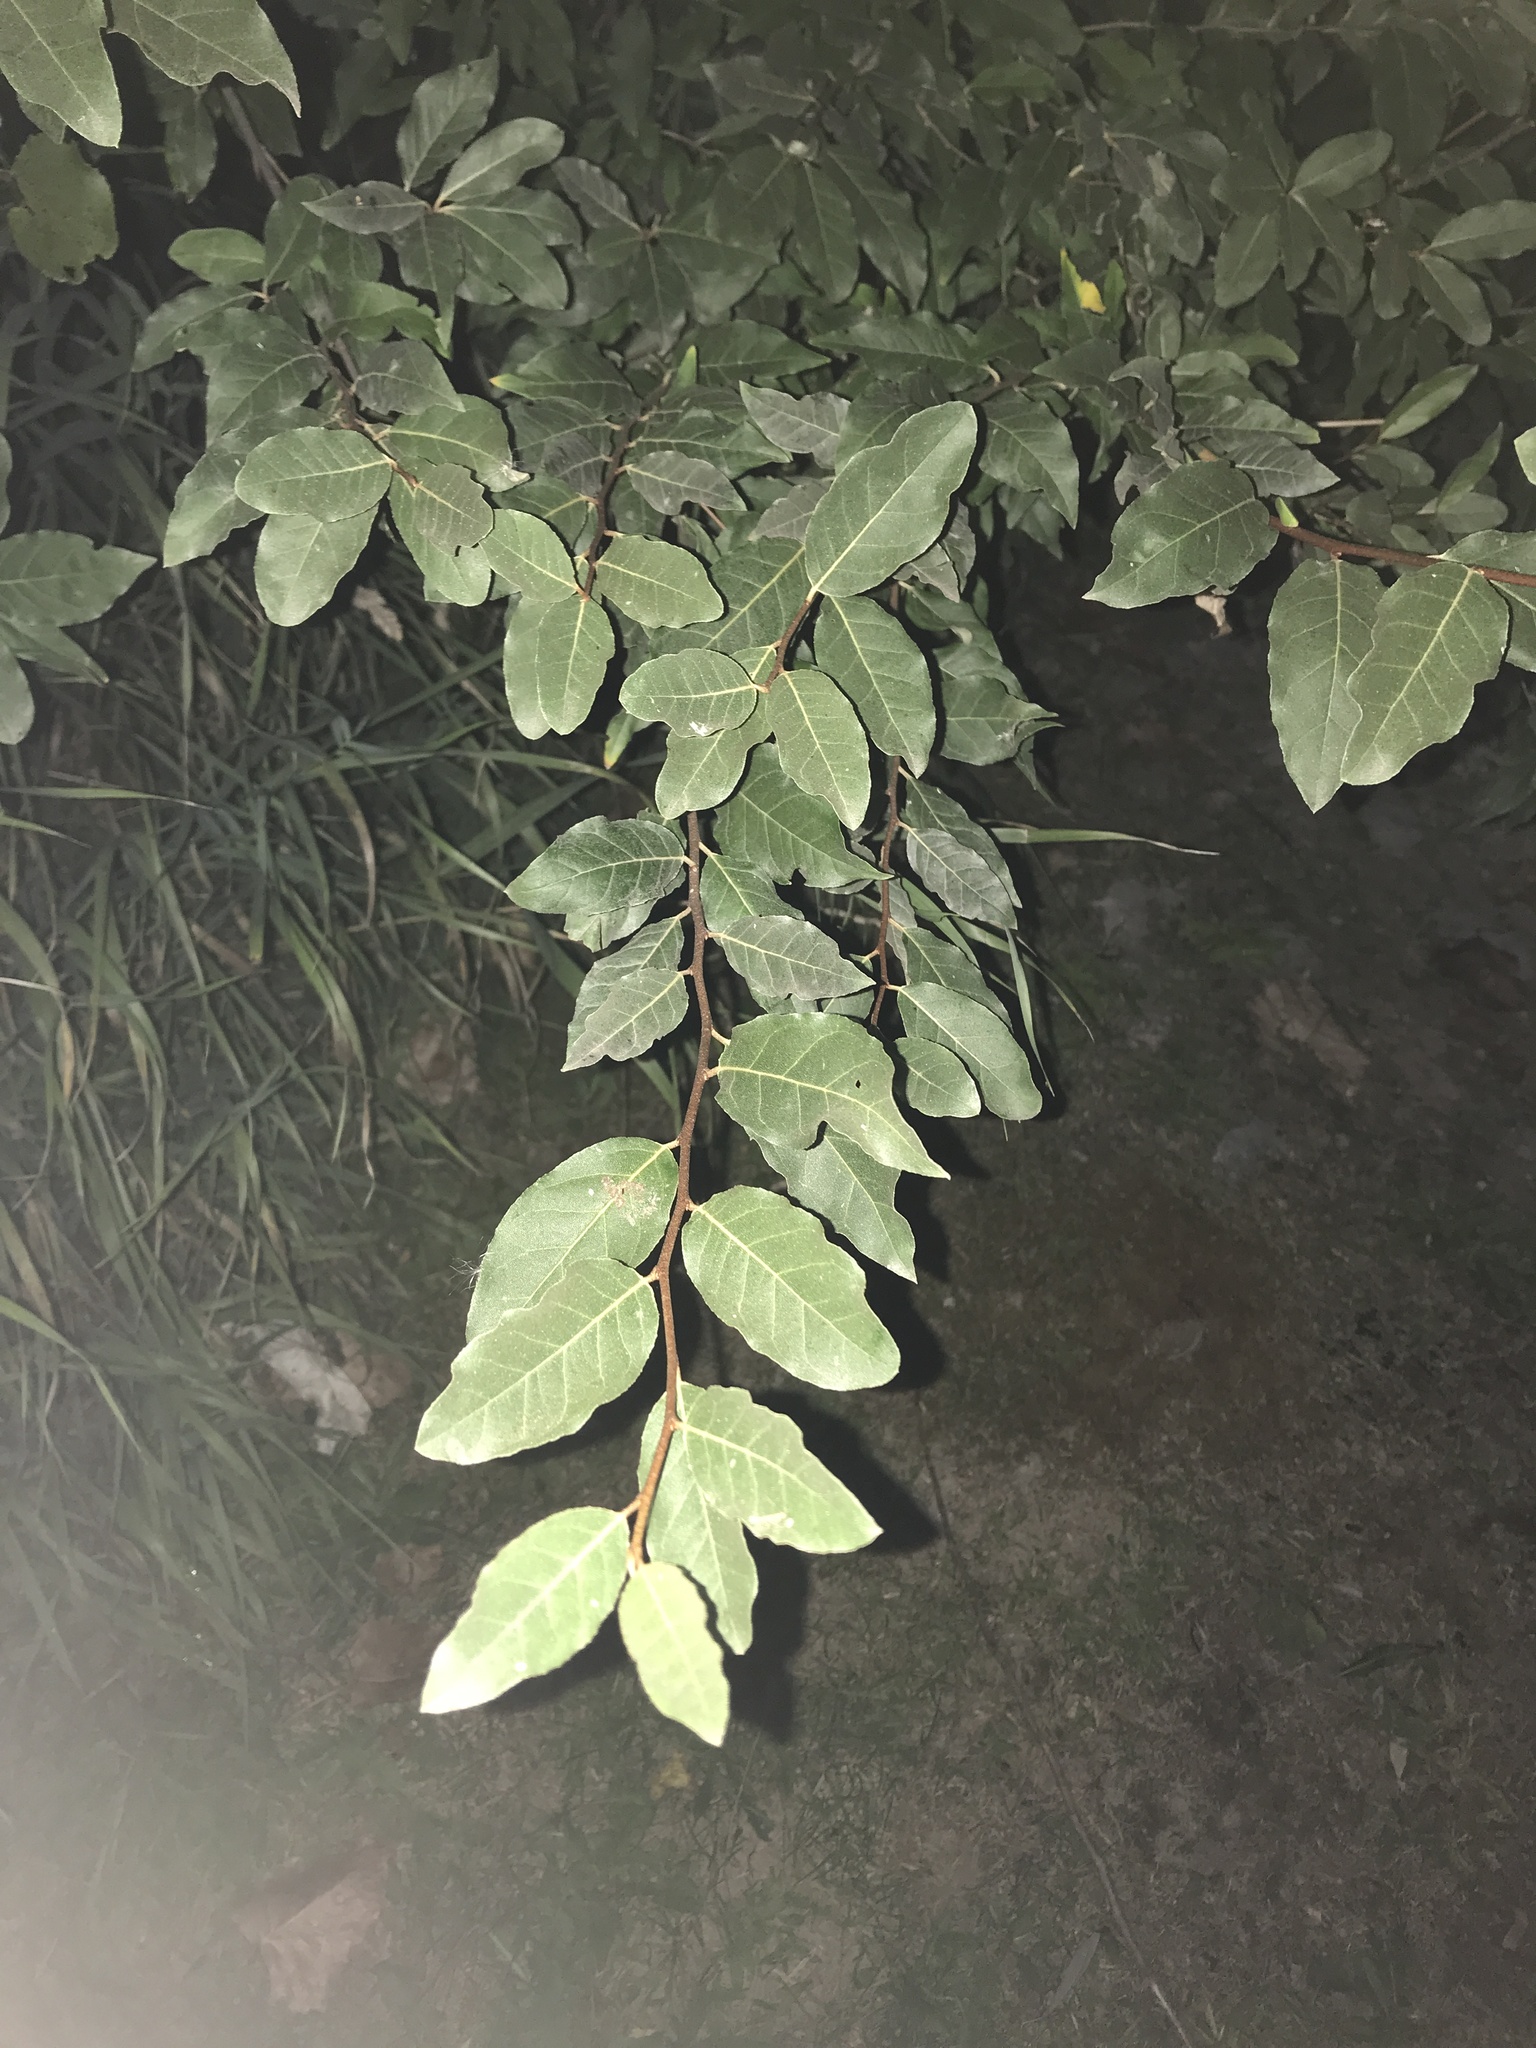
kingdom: Plantae
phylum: Tracheophyta
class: Magnoliopsida
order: Rosales
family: Elaeagnaceae
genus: Elaeagnus
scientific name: Elaeagnus umbellata
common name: Autumn olive
